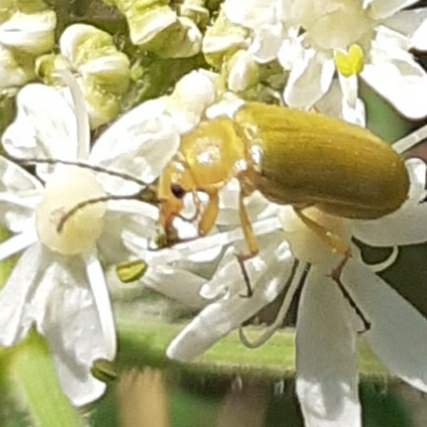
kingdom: Animalia
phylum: Arthropoda
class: Insecta
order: Coleoptera
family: Tenebrionidae
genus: Cteniopus
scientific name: Cteniopus sulphureus
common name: Sulphur beetle
